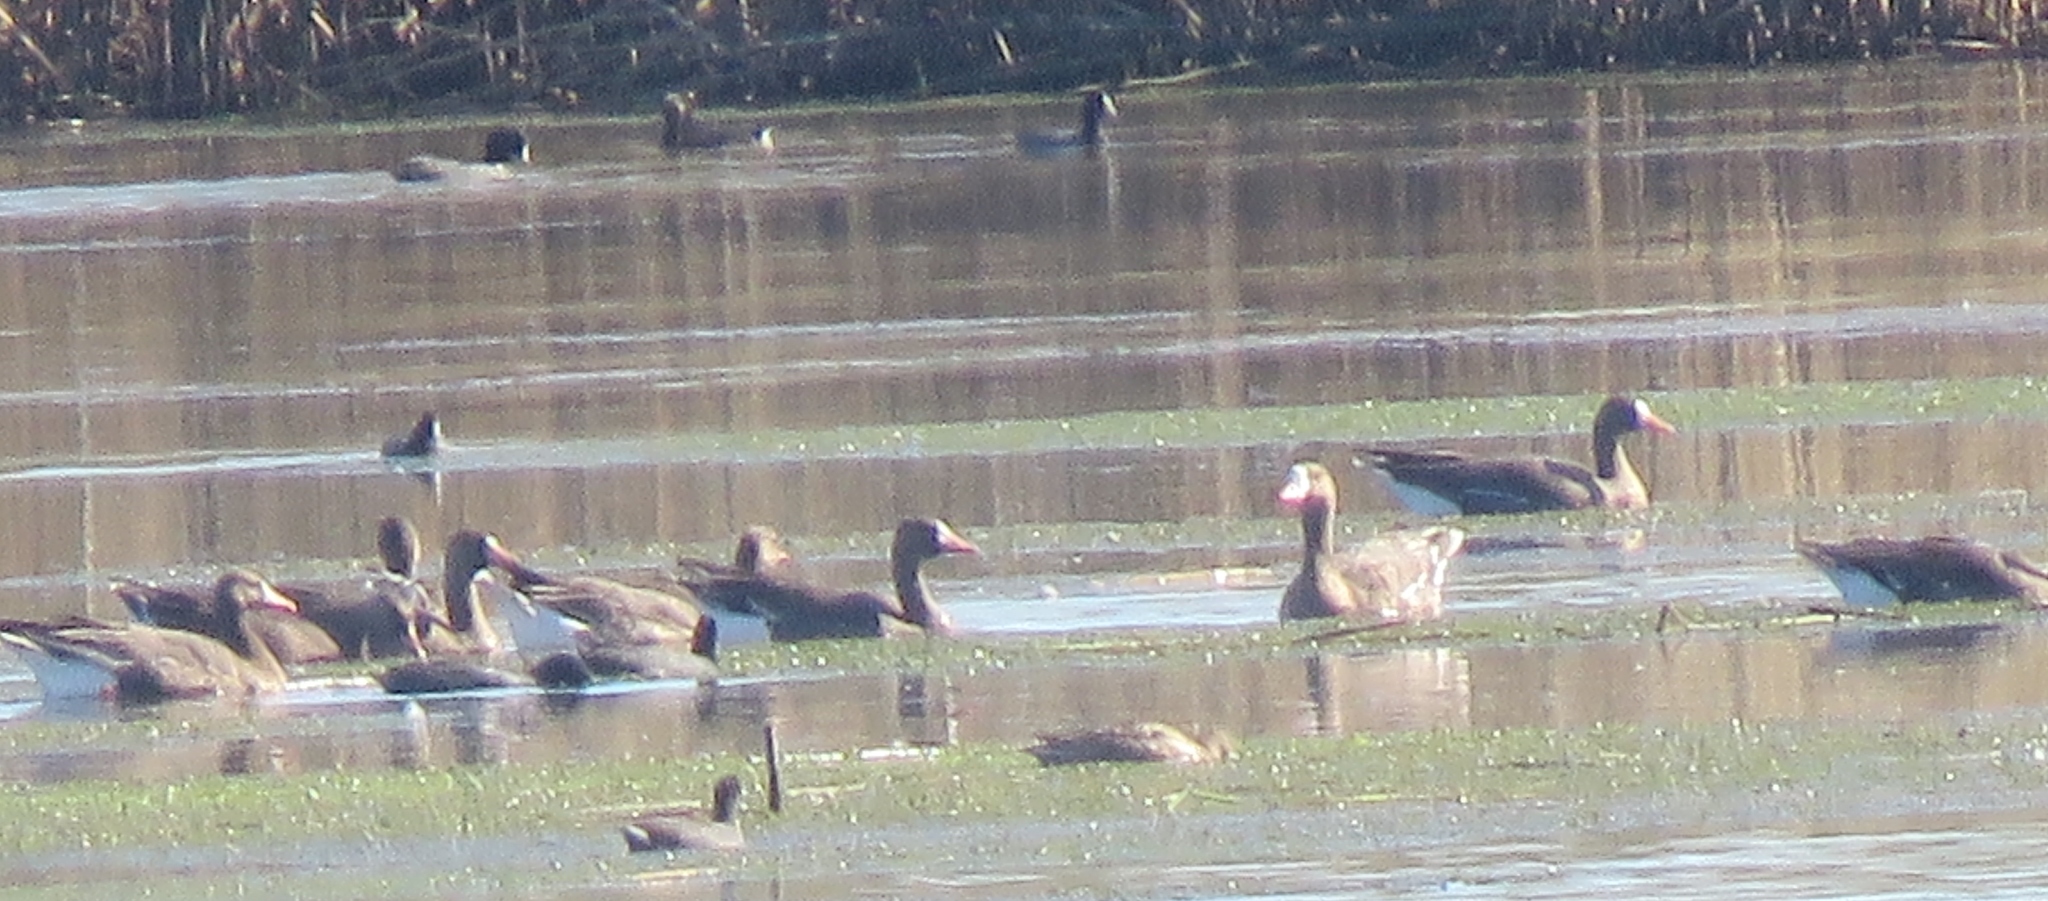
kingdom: Animalia
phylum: Chordata
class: Aves
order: Anseriformes
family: Anatidae
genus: Anser
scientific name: Anser albifrons
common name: Greater white-fronted goose
